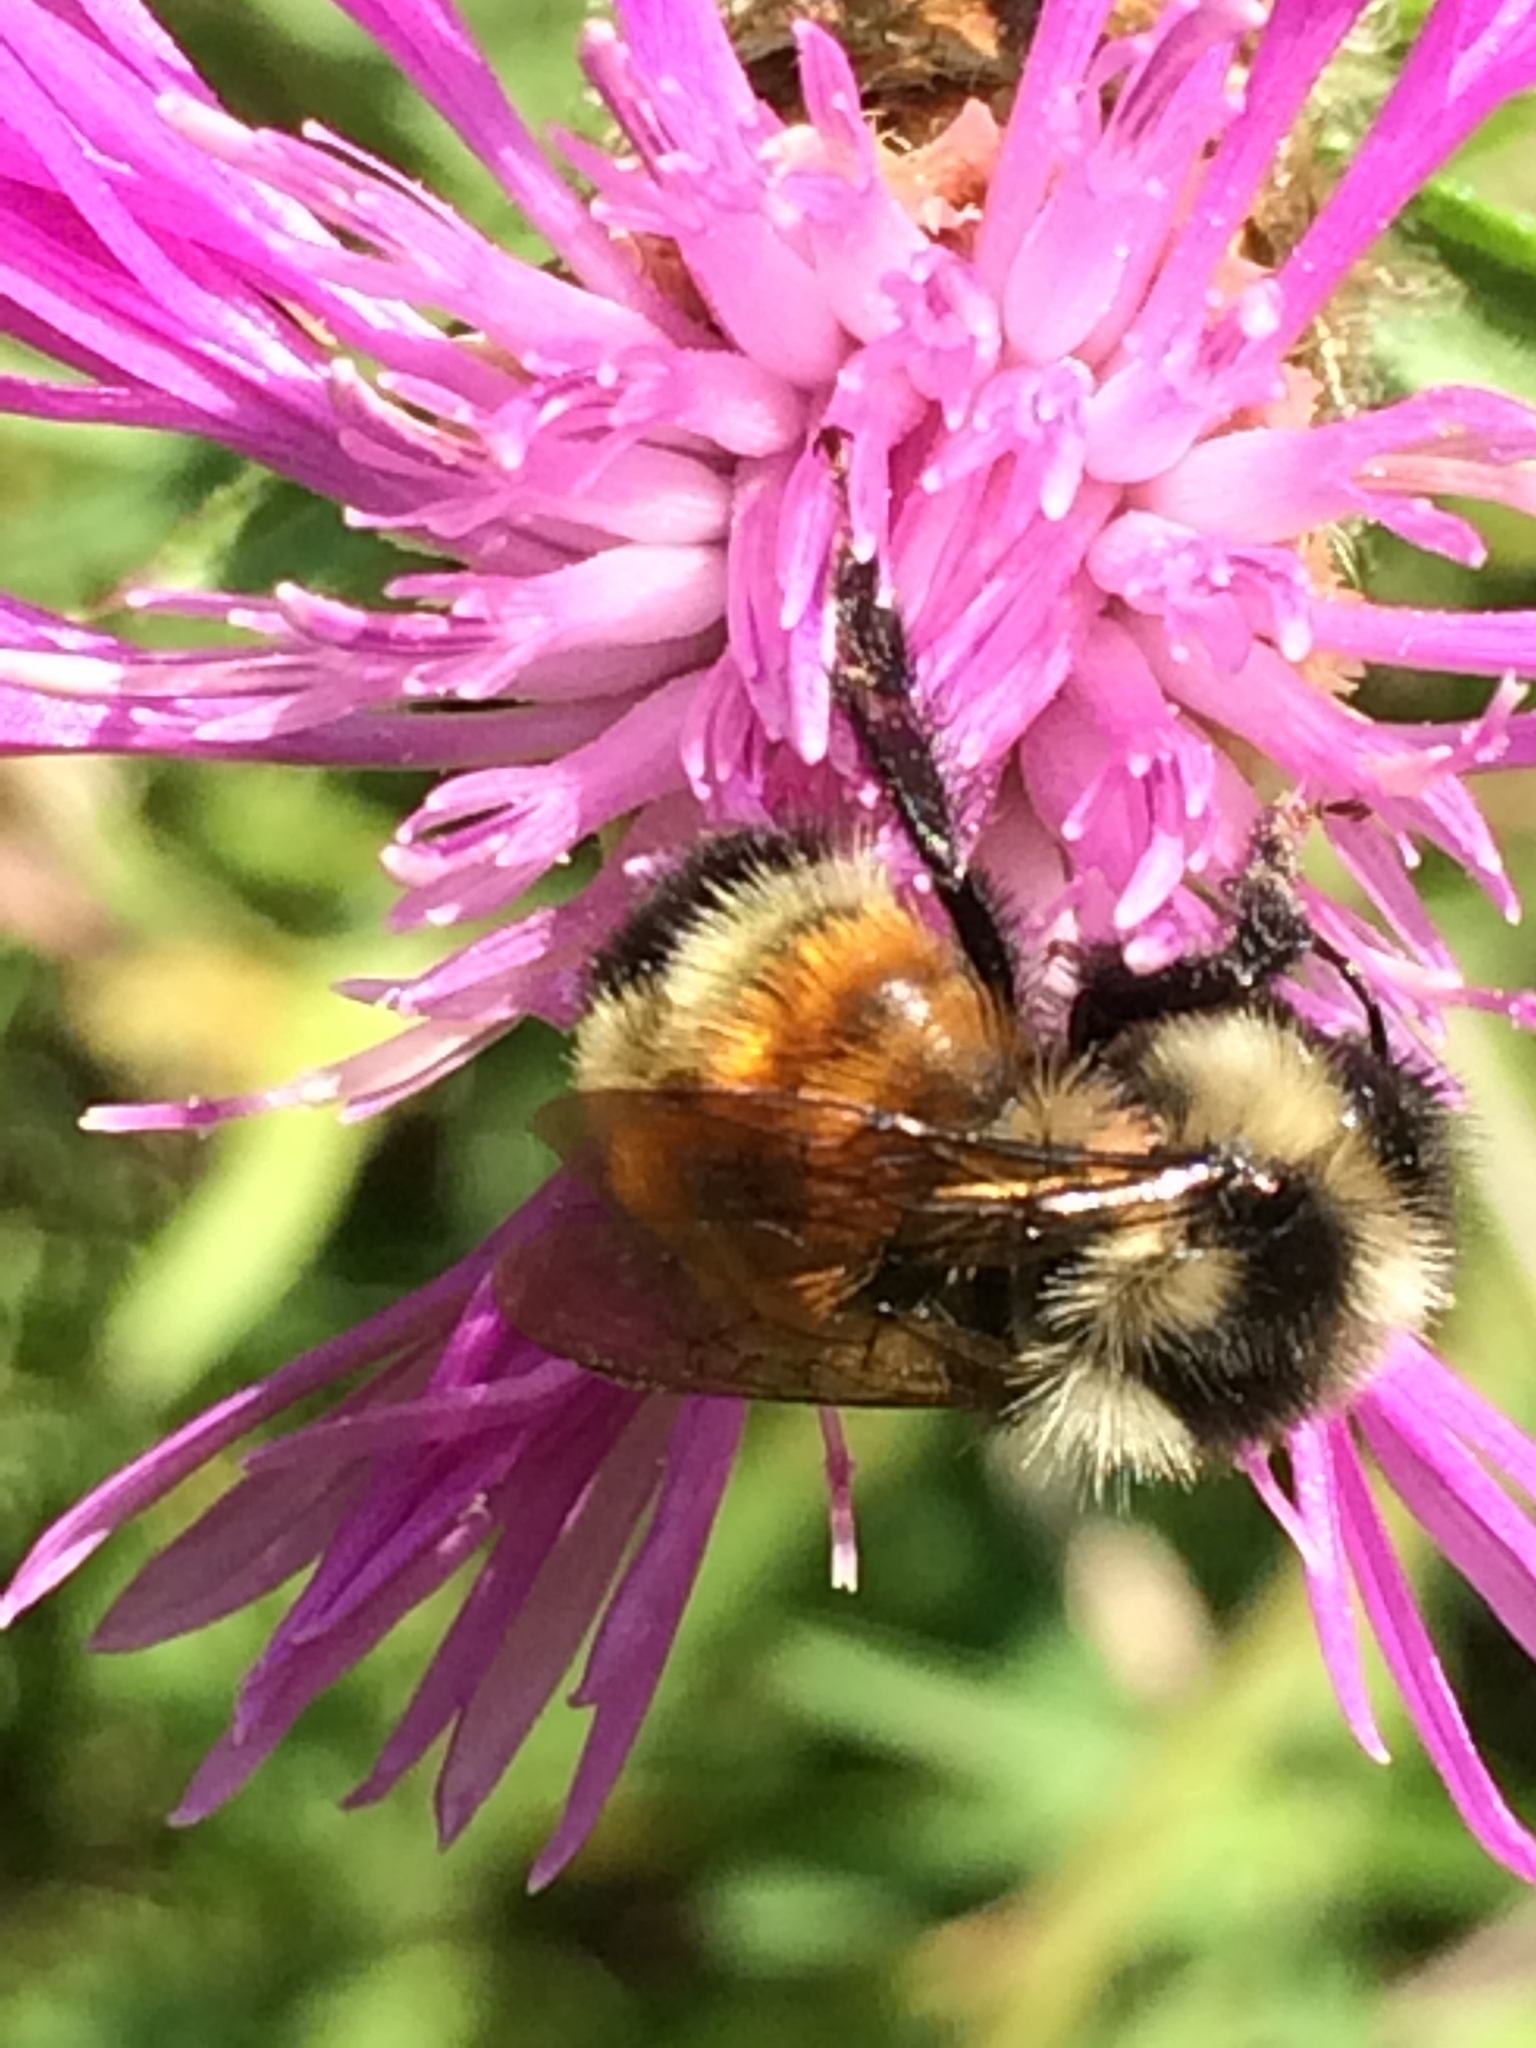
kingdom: Animalia
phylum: Arthropoda
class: Insecta
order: Hymenoptera
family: Apidae
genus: Bombus
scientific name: Bombus ternarius
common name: Tri-colored bumble bee
